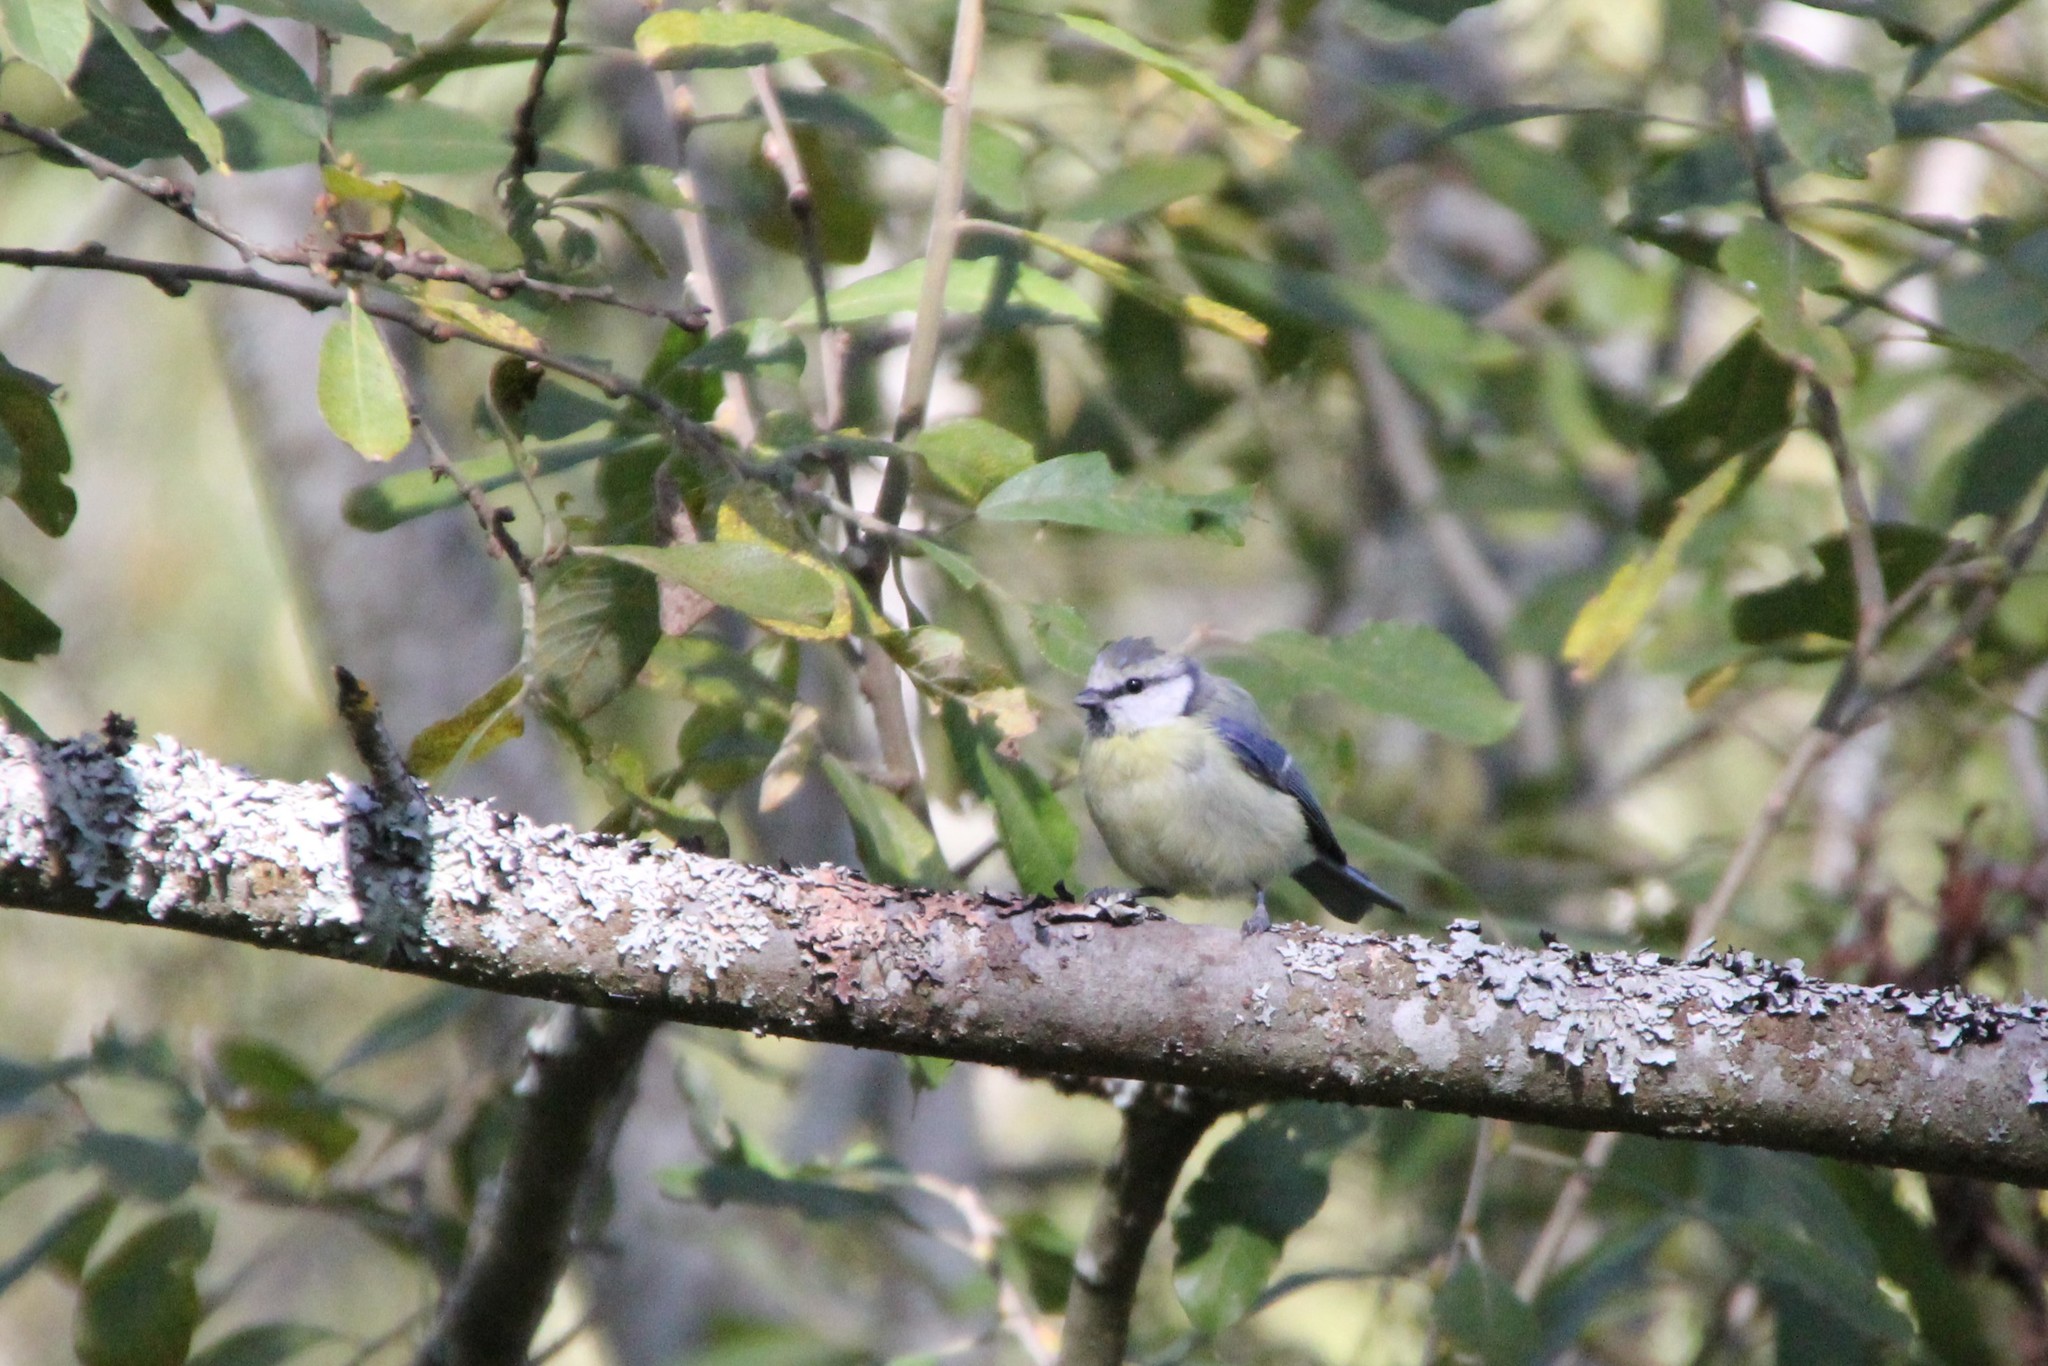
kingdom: Animalia
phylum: Chordata
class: Aves
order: Passeriformes
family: Paridae
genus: Cyanistes
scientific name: Cyanistes caeruleus
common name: Eurasian blue tit
